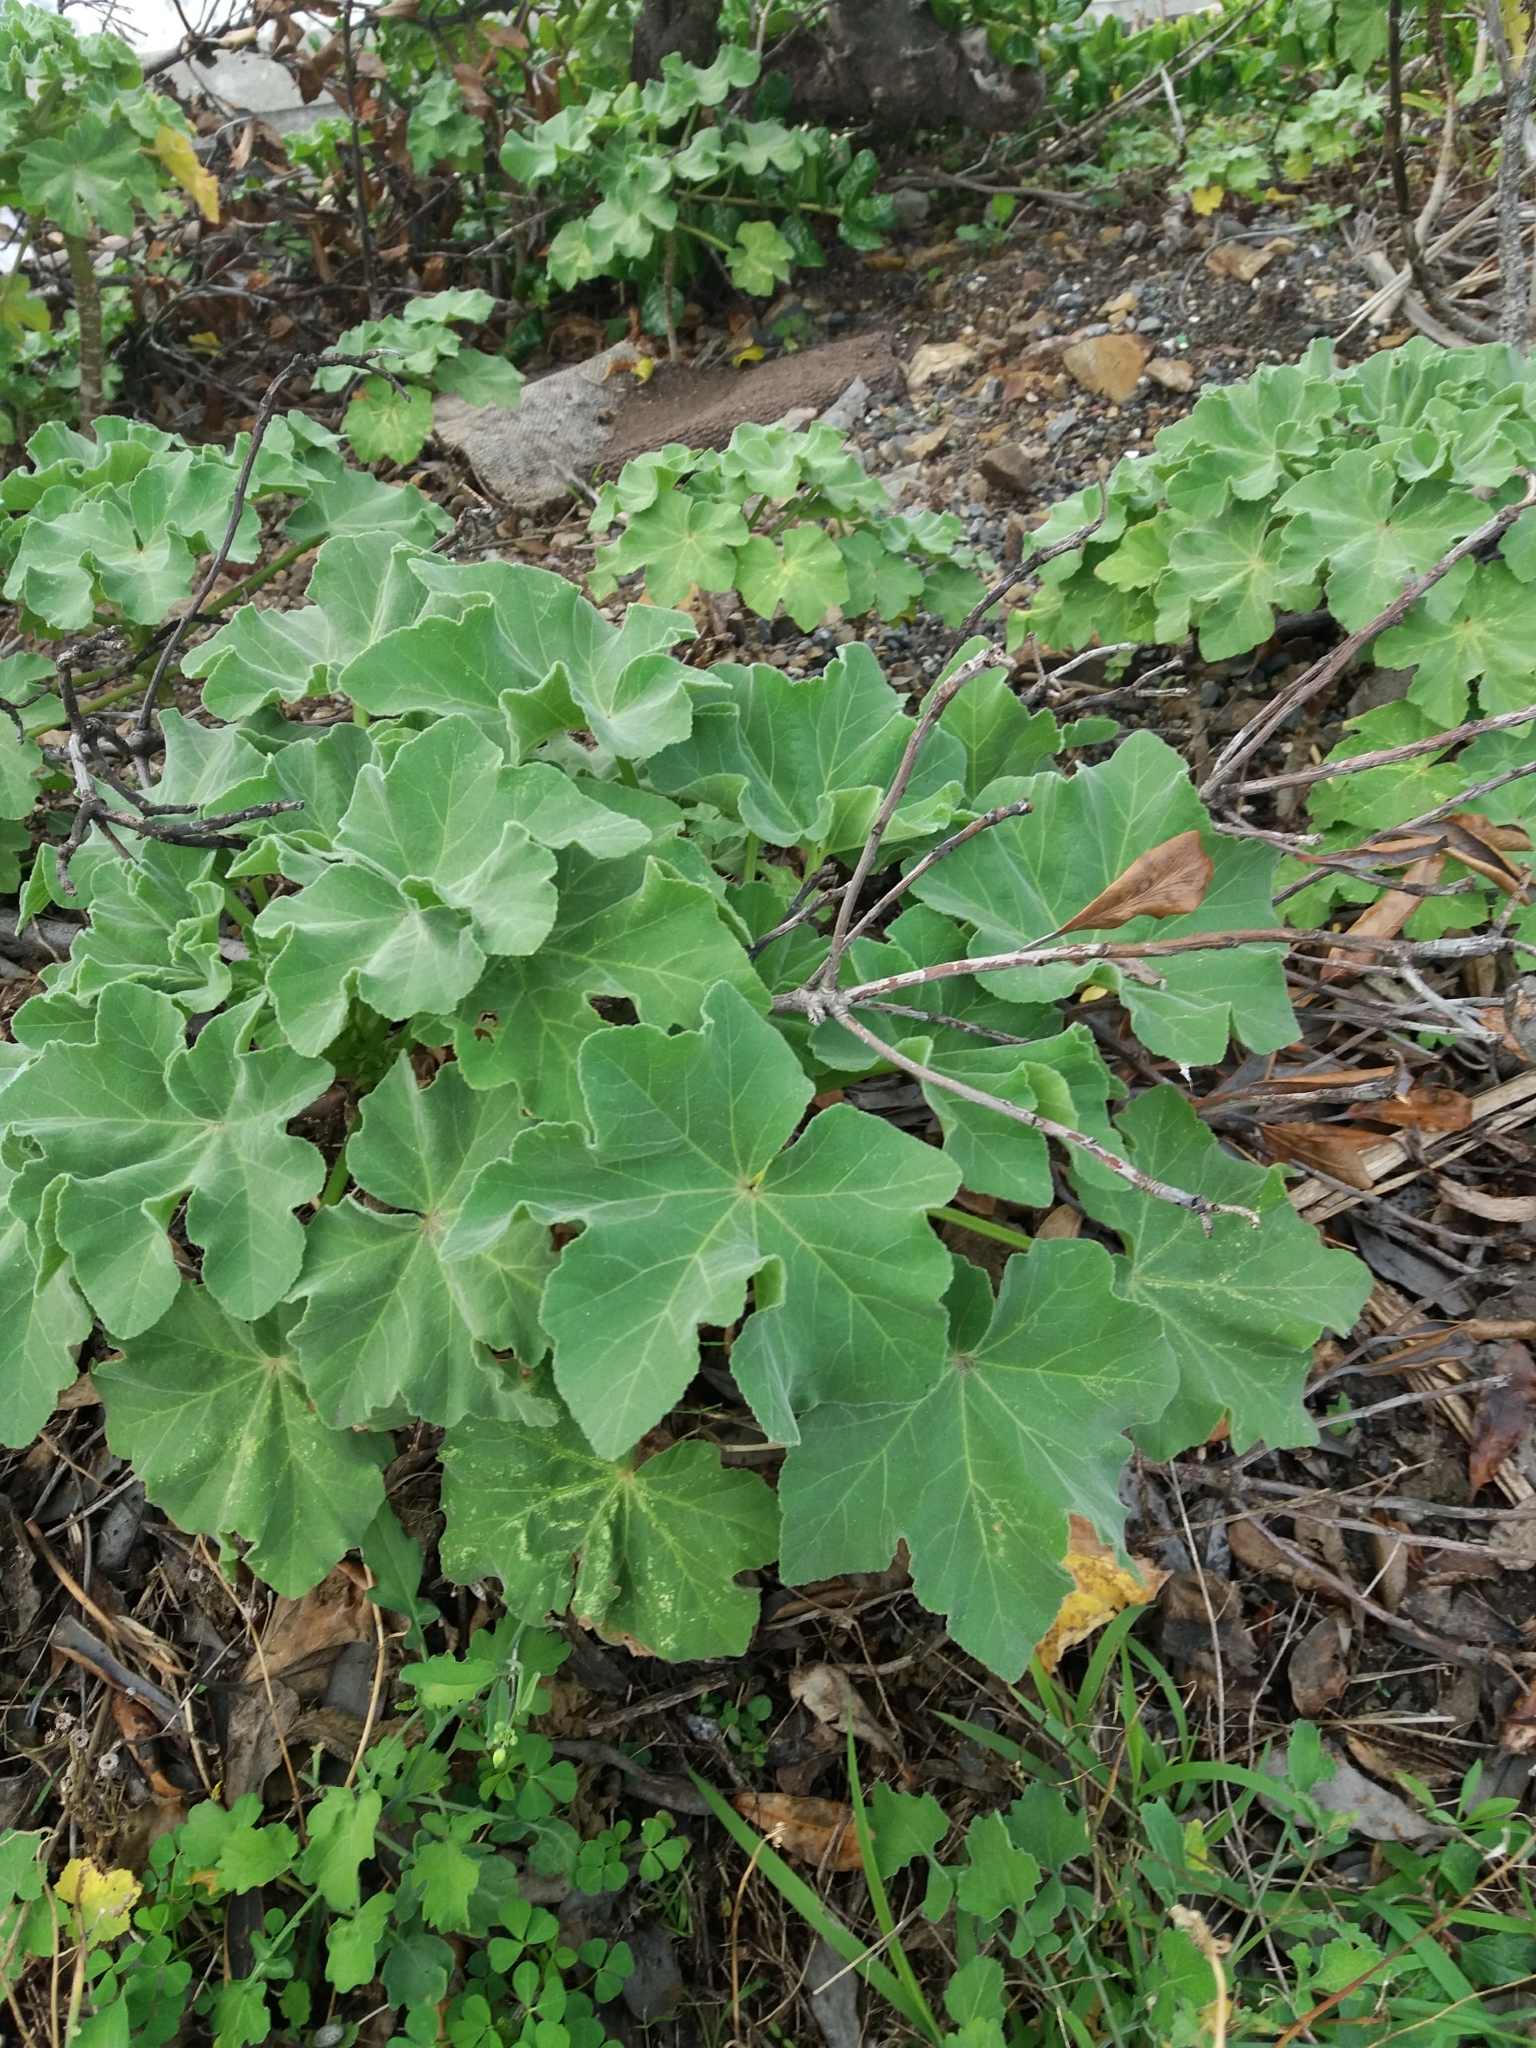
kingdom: Plantae
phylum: Tracheophyta
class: Magnoliopsida
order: Malvales
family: Malvaceae
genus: Malva
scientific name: Malva arborea
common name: Tree mallow
